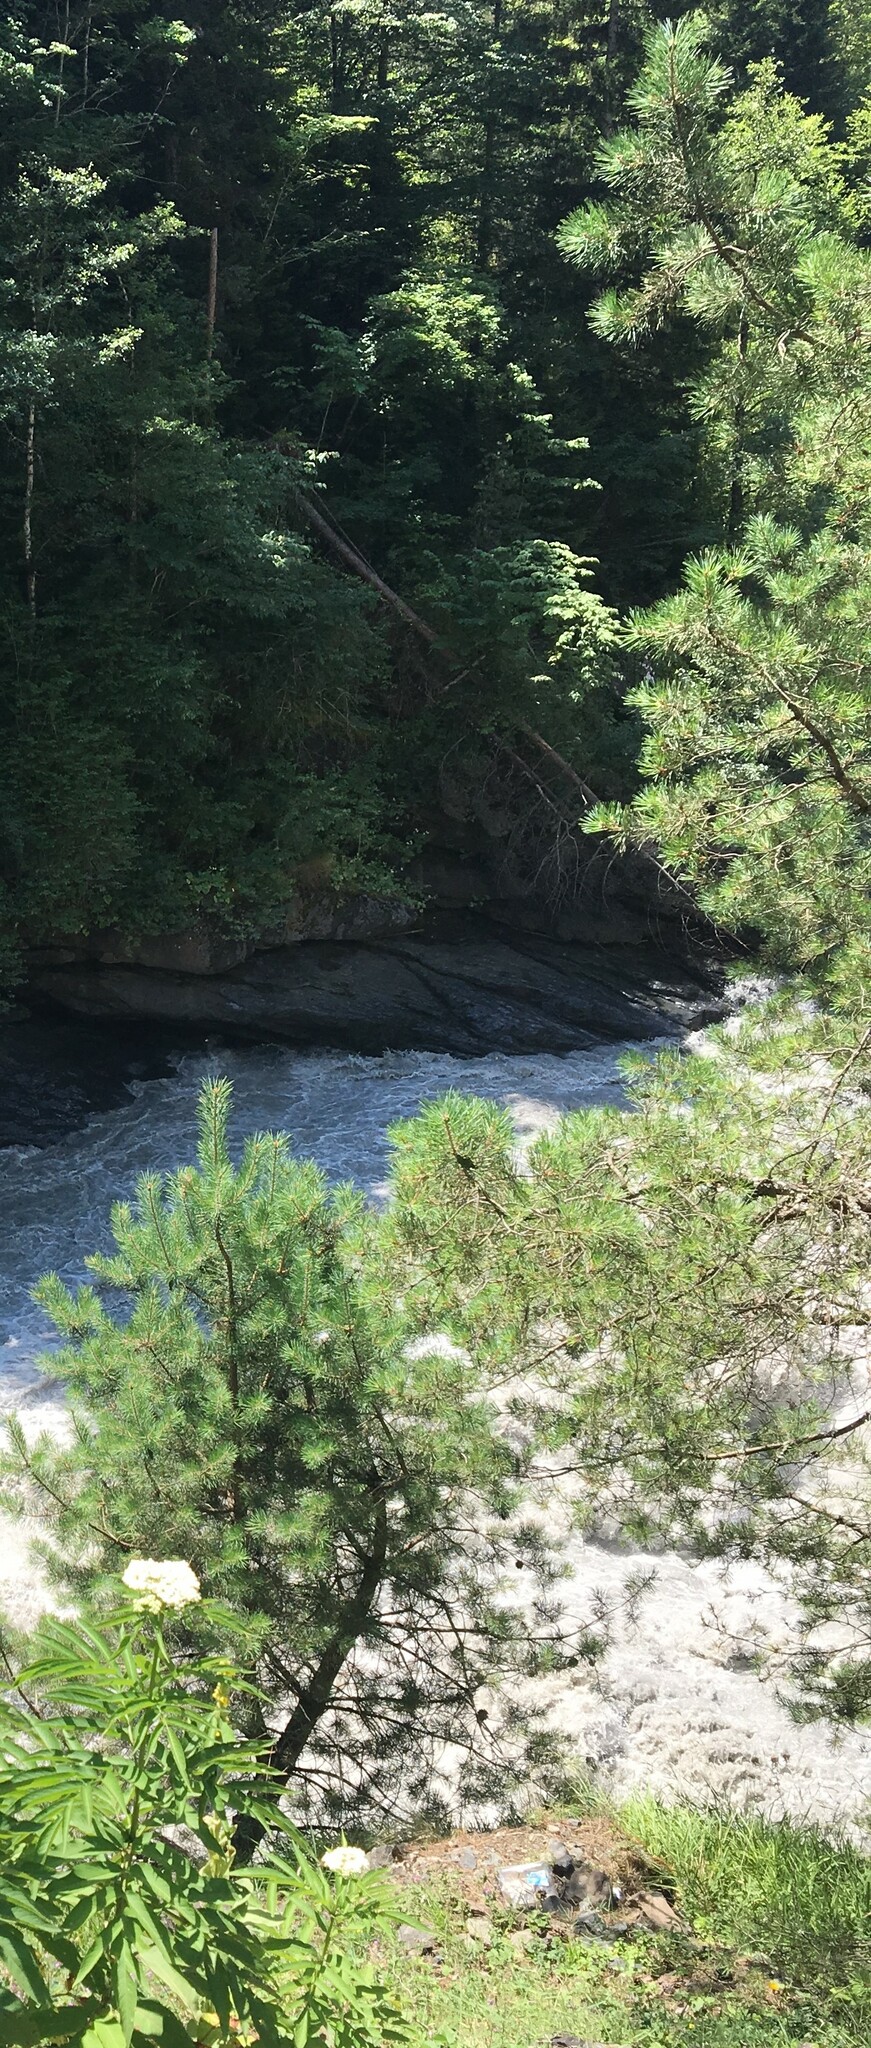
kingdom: Plantae
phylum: Tracheophyta
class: Pinopsida
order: Pinales
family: Pinaceae
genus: Pinus
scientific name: Pinus sylvestris
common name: Scots pine
